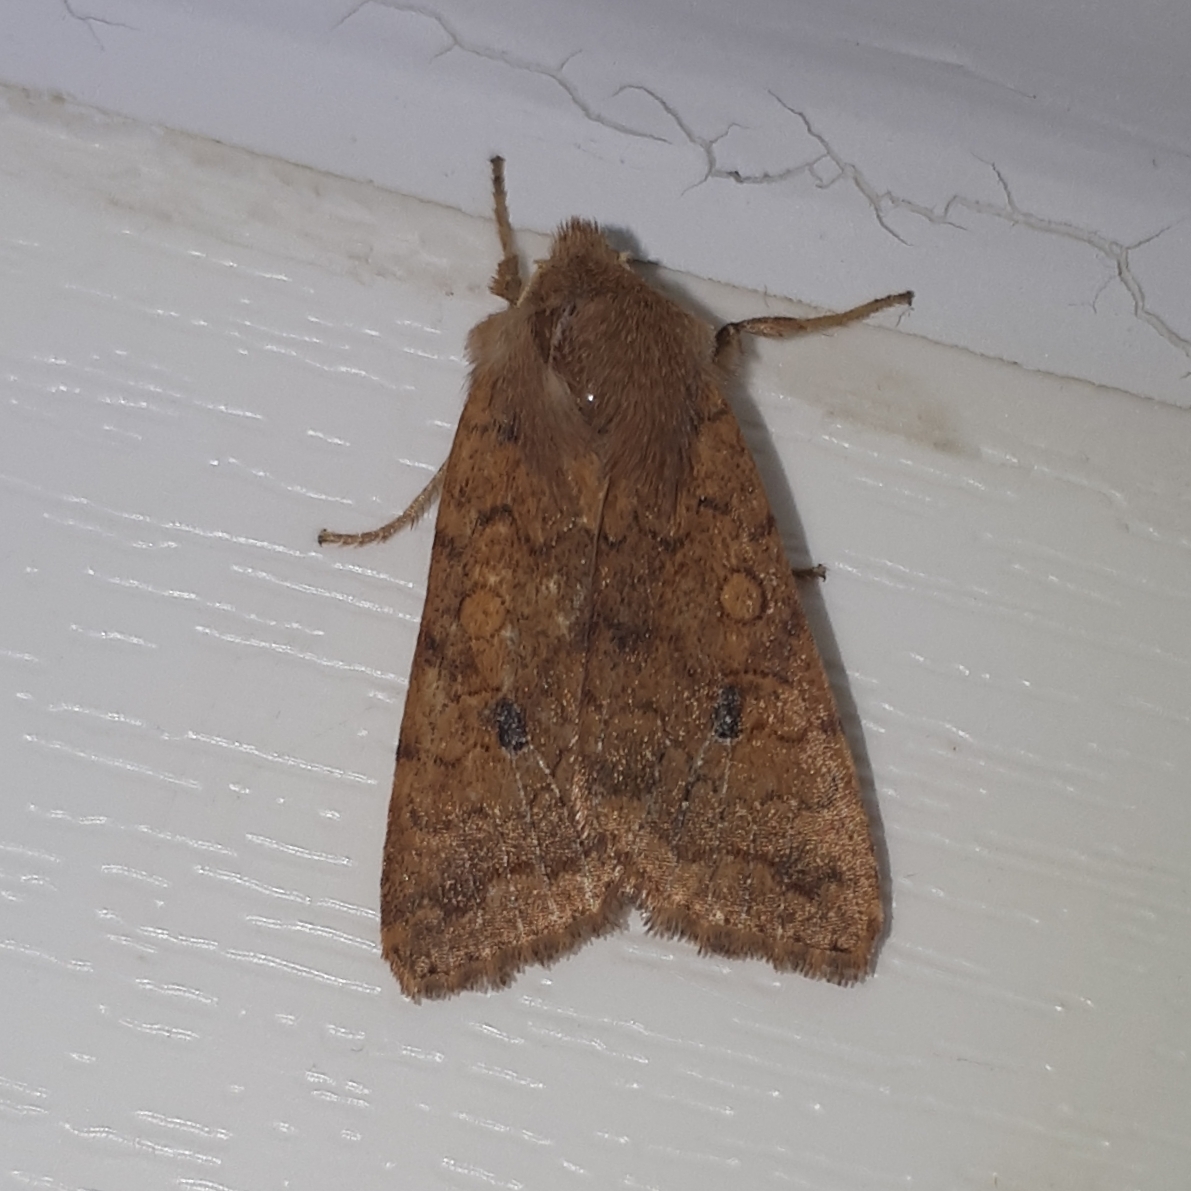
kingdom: Animalia
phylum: Arthropoda
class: Insecta
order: Lepidoptera
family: Noctuidae
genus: Sunira
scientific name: Sunira circellaris
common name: Brick
